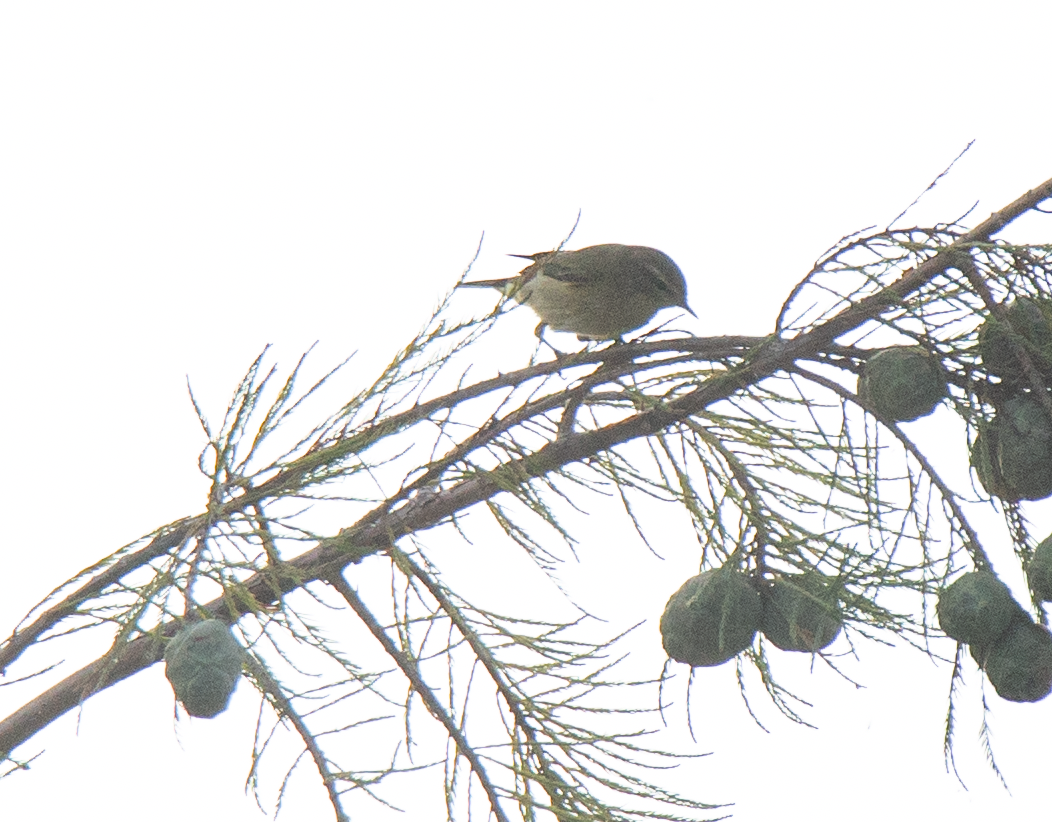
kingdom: Animalia
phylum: Chordata
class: Aves
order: Passeriformes
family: Phylloscopidae
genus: Phylloscopus
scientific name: Phylloscopus collybita
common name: Common chiffchaff
